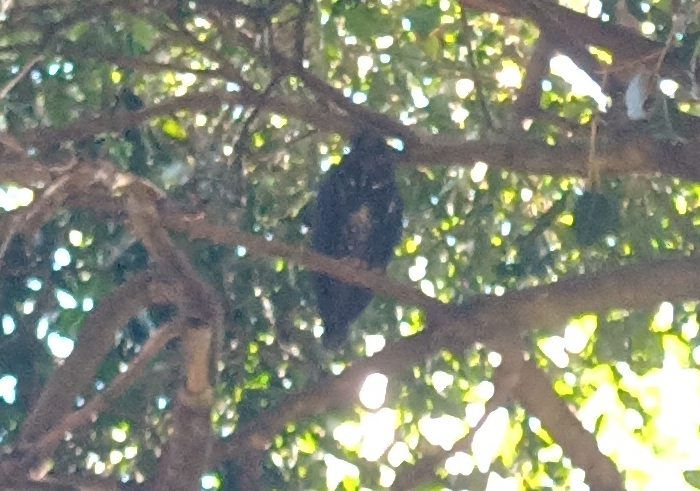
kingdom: Animalia
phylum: Chordata
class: Aves
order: Strigiformes
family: Strigidae
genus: Asio
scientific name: Asio stygius
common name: Stygian owl
